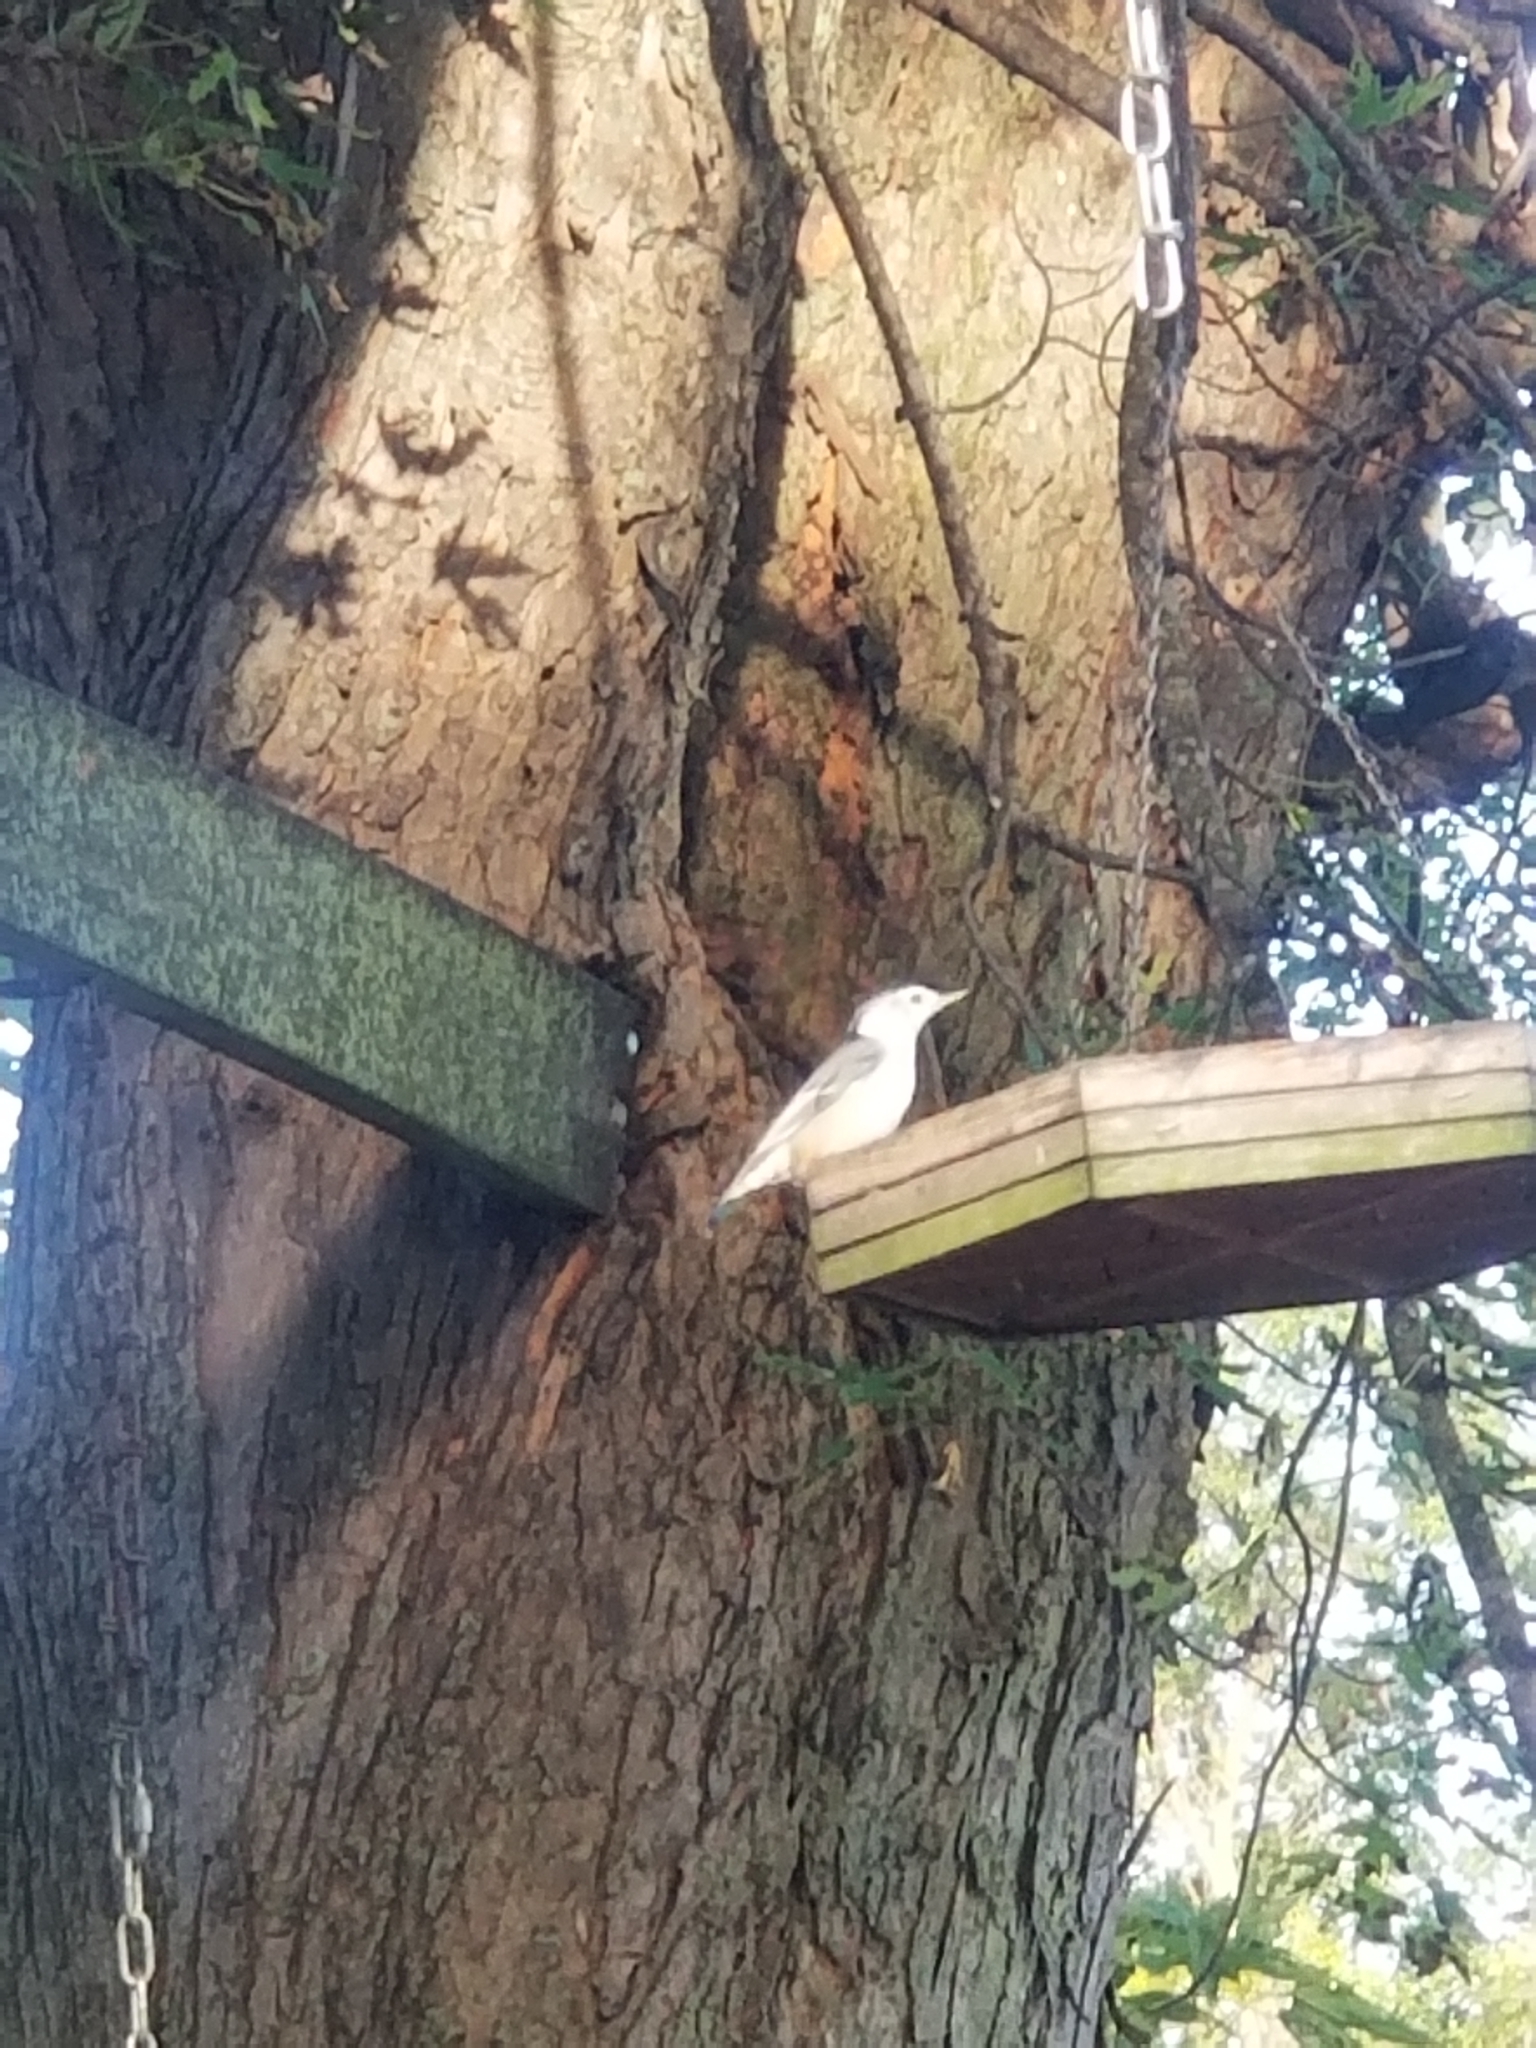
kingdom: Animalia
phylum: Chordata
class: Aves
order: Passeriformes
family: Sittidae
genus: Sitta
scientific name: Sitta carolinensis
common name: White-breasted nuthatch
